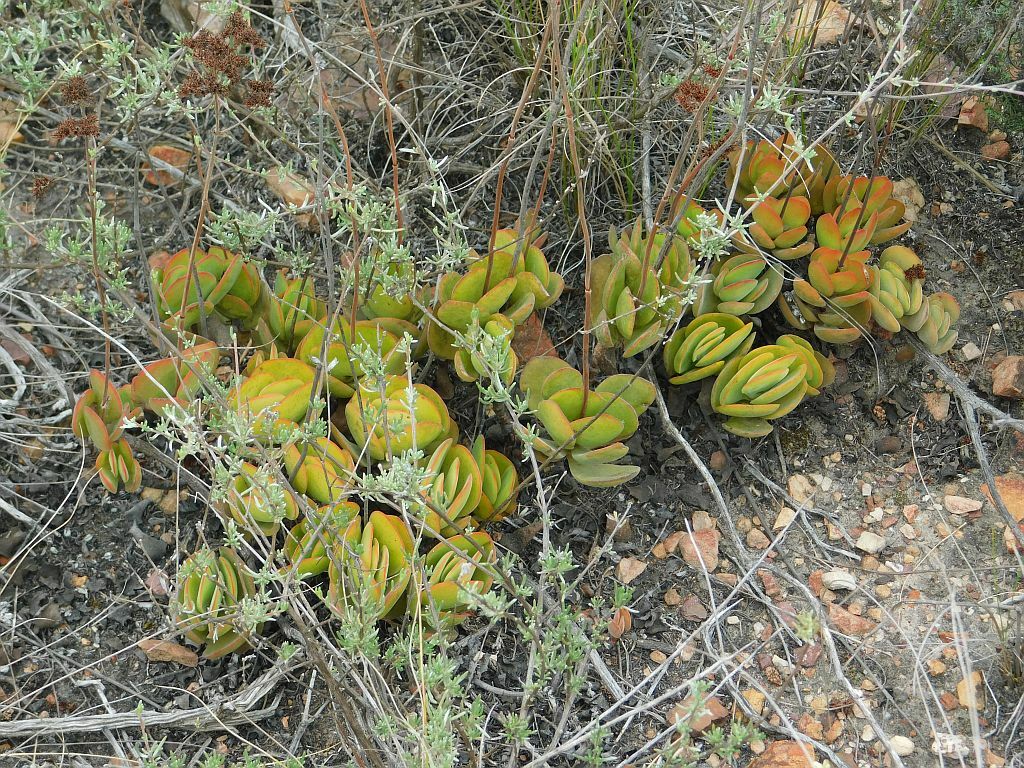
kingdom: Plantae
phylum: Tracheophyta
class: Magnoliopsida
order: Saxifragales
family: Crassulaceae
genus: Crassula
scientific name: Crassula nudicaulis
